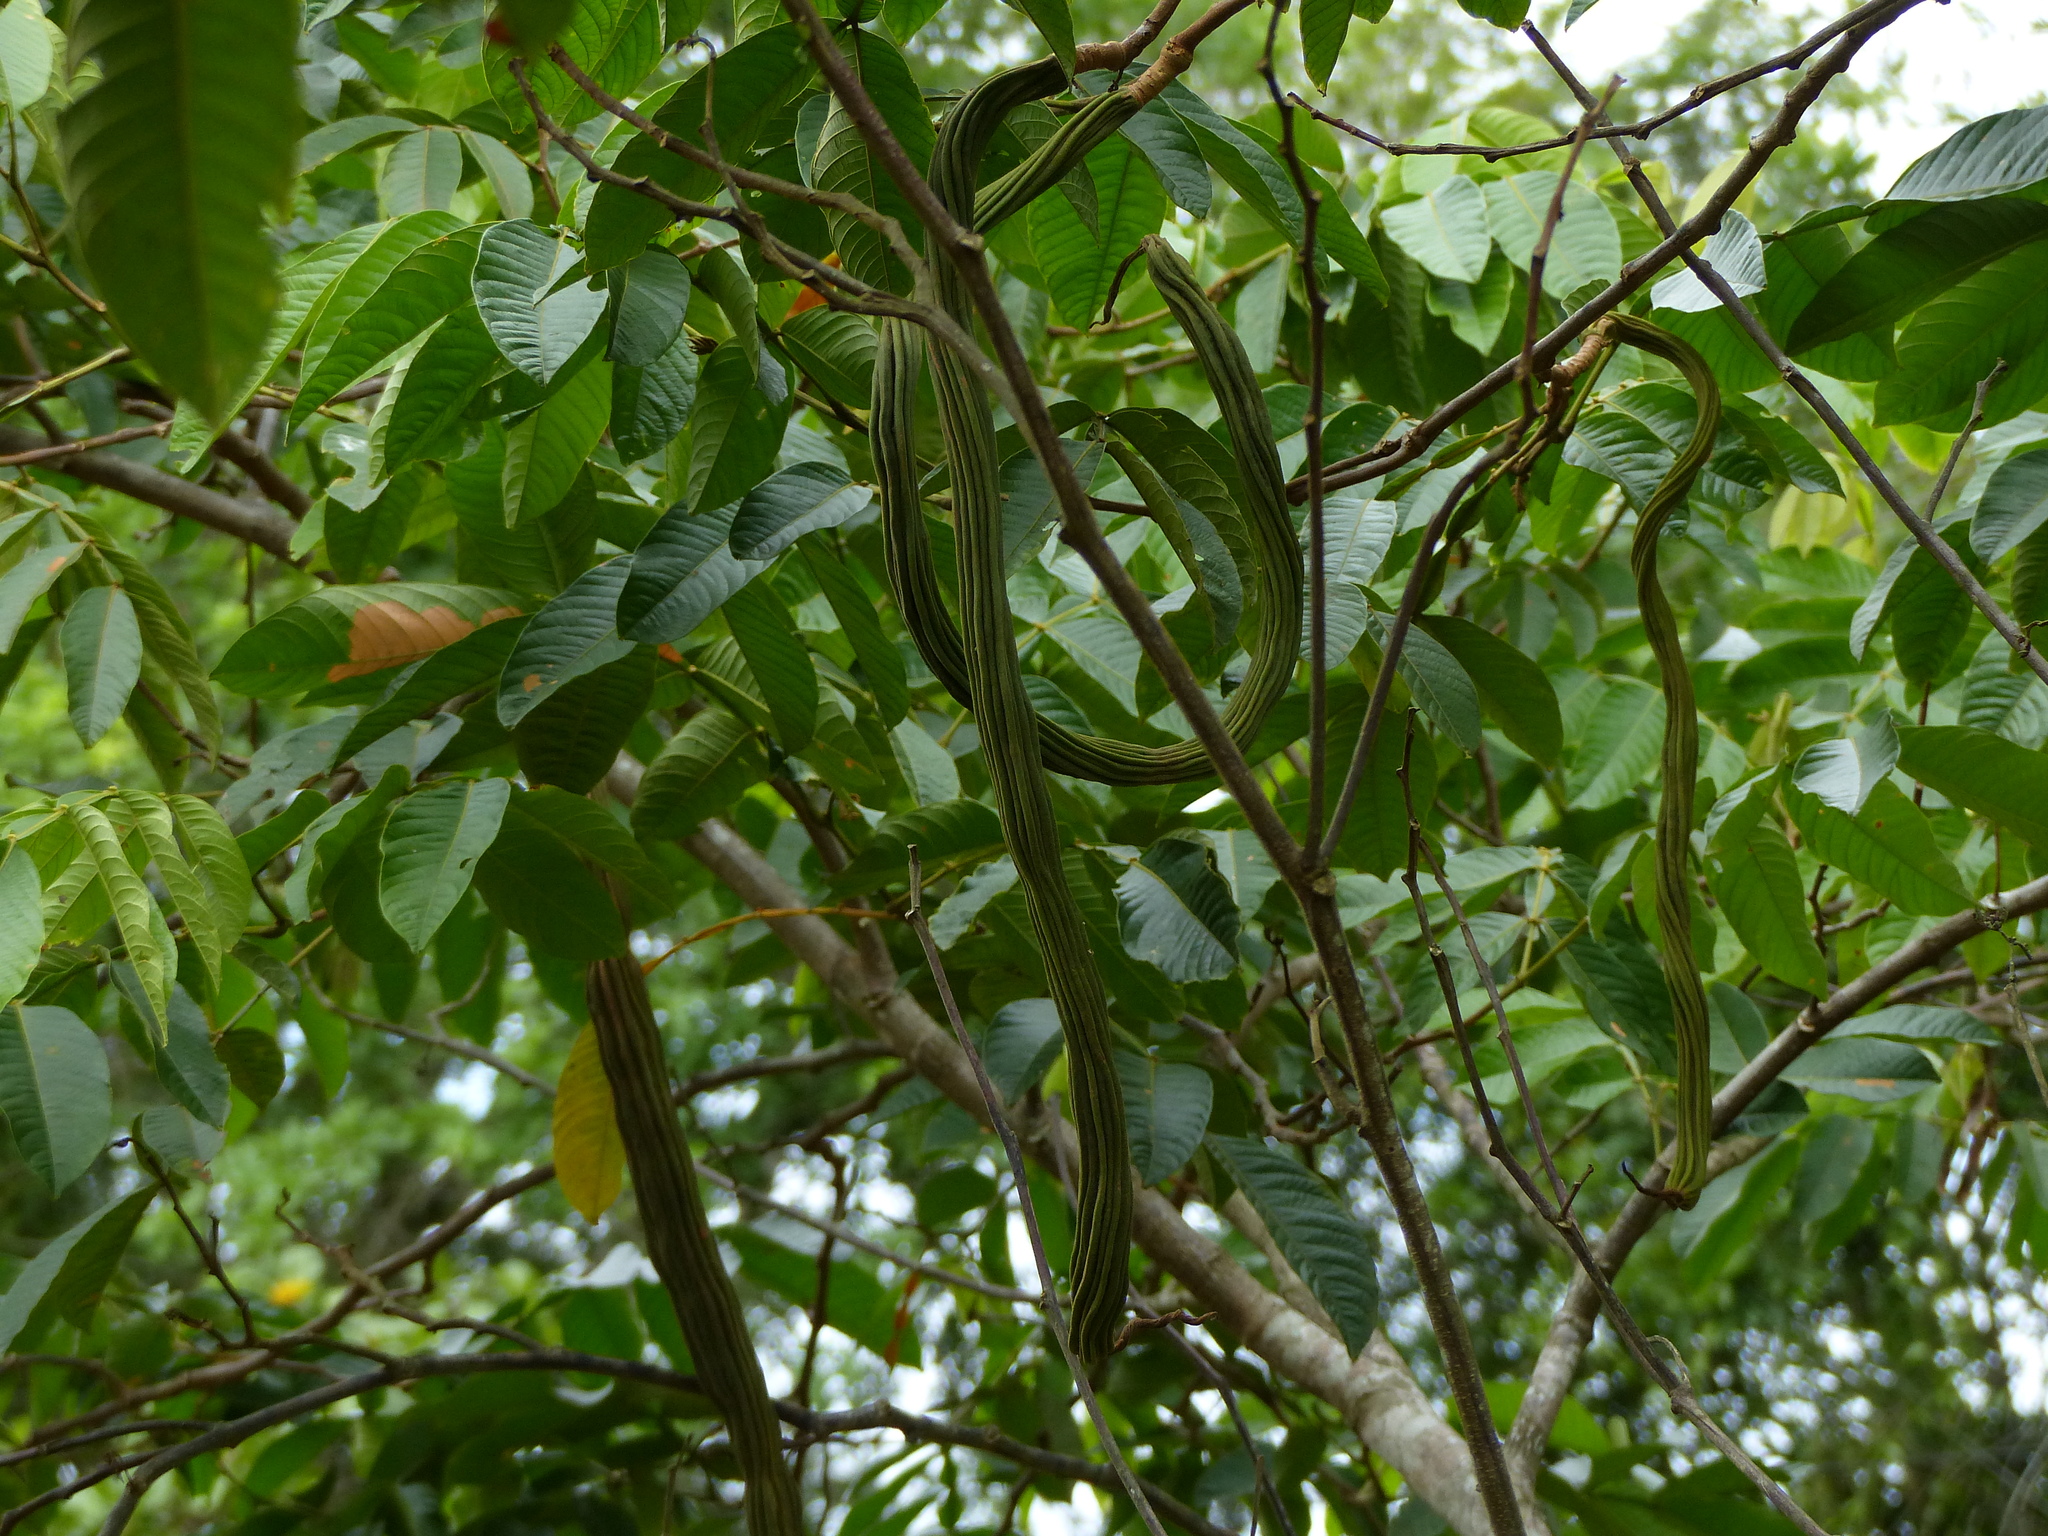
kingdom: Plantae
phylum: Tracheophyta
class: Magnoliopsida
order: Fabales
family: Fabaceae
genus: Inga
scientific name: Inga edulis
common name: Ice cream bean
